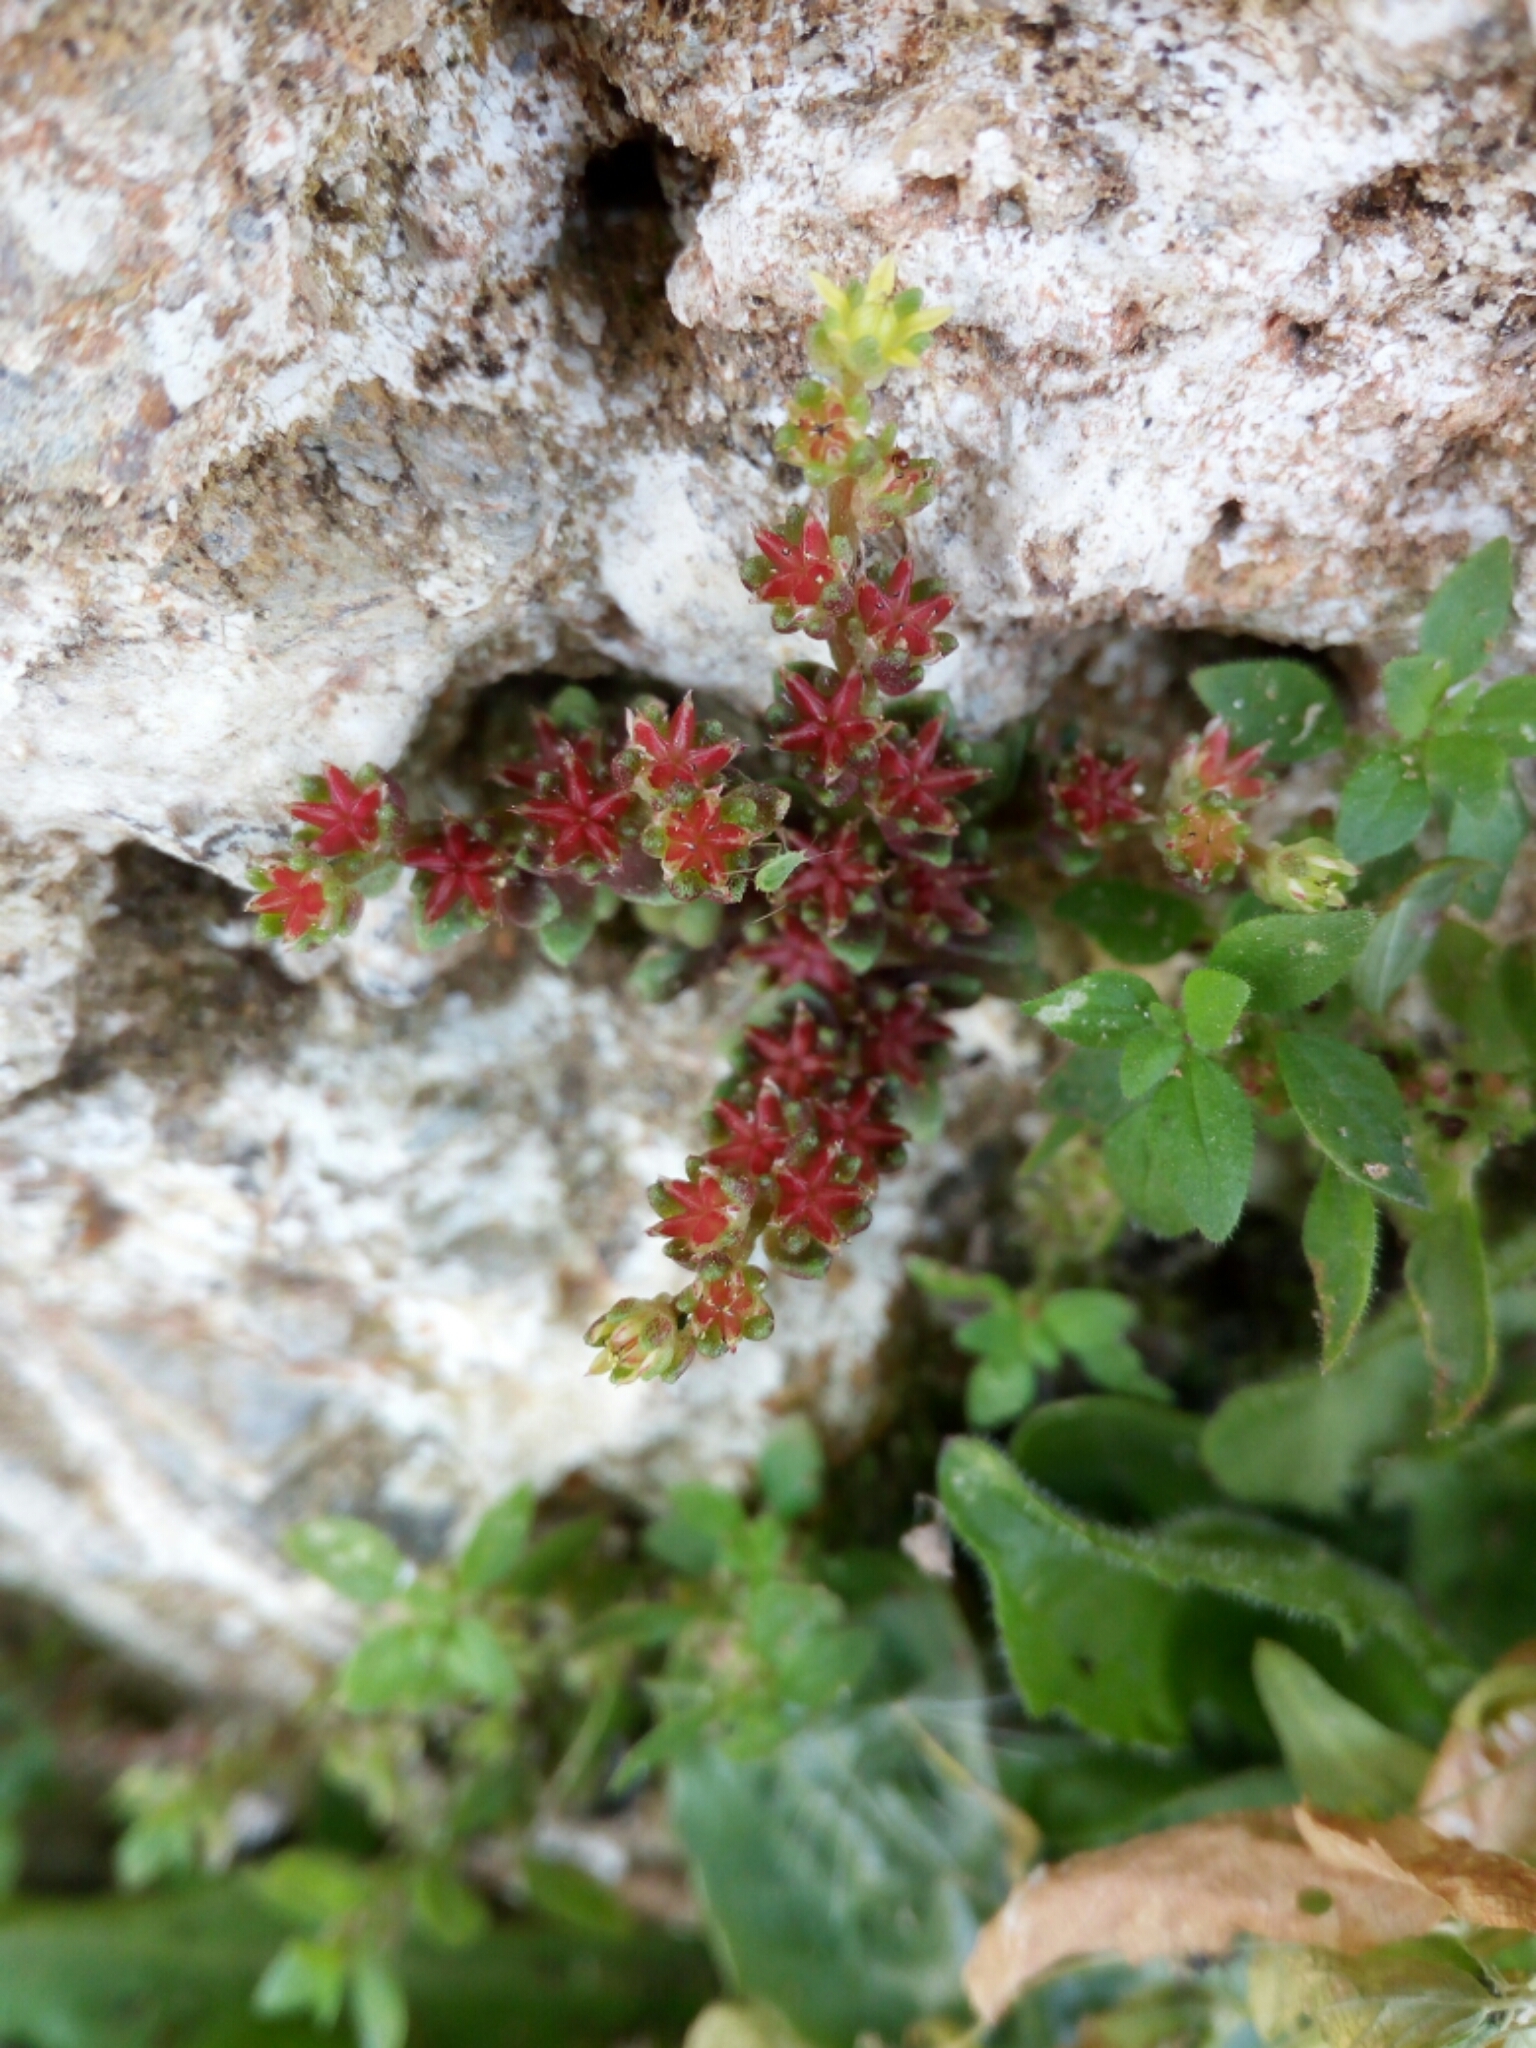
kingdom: Plantae
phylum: Tracheophyta
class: Magnoliopsida
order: Saxifragales
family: Crassulaceae
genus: Sedum
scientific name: Sedum litoreum
